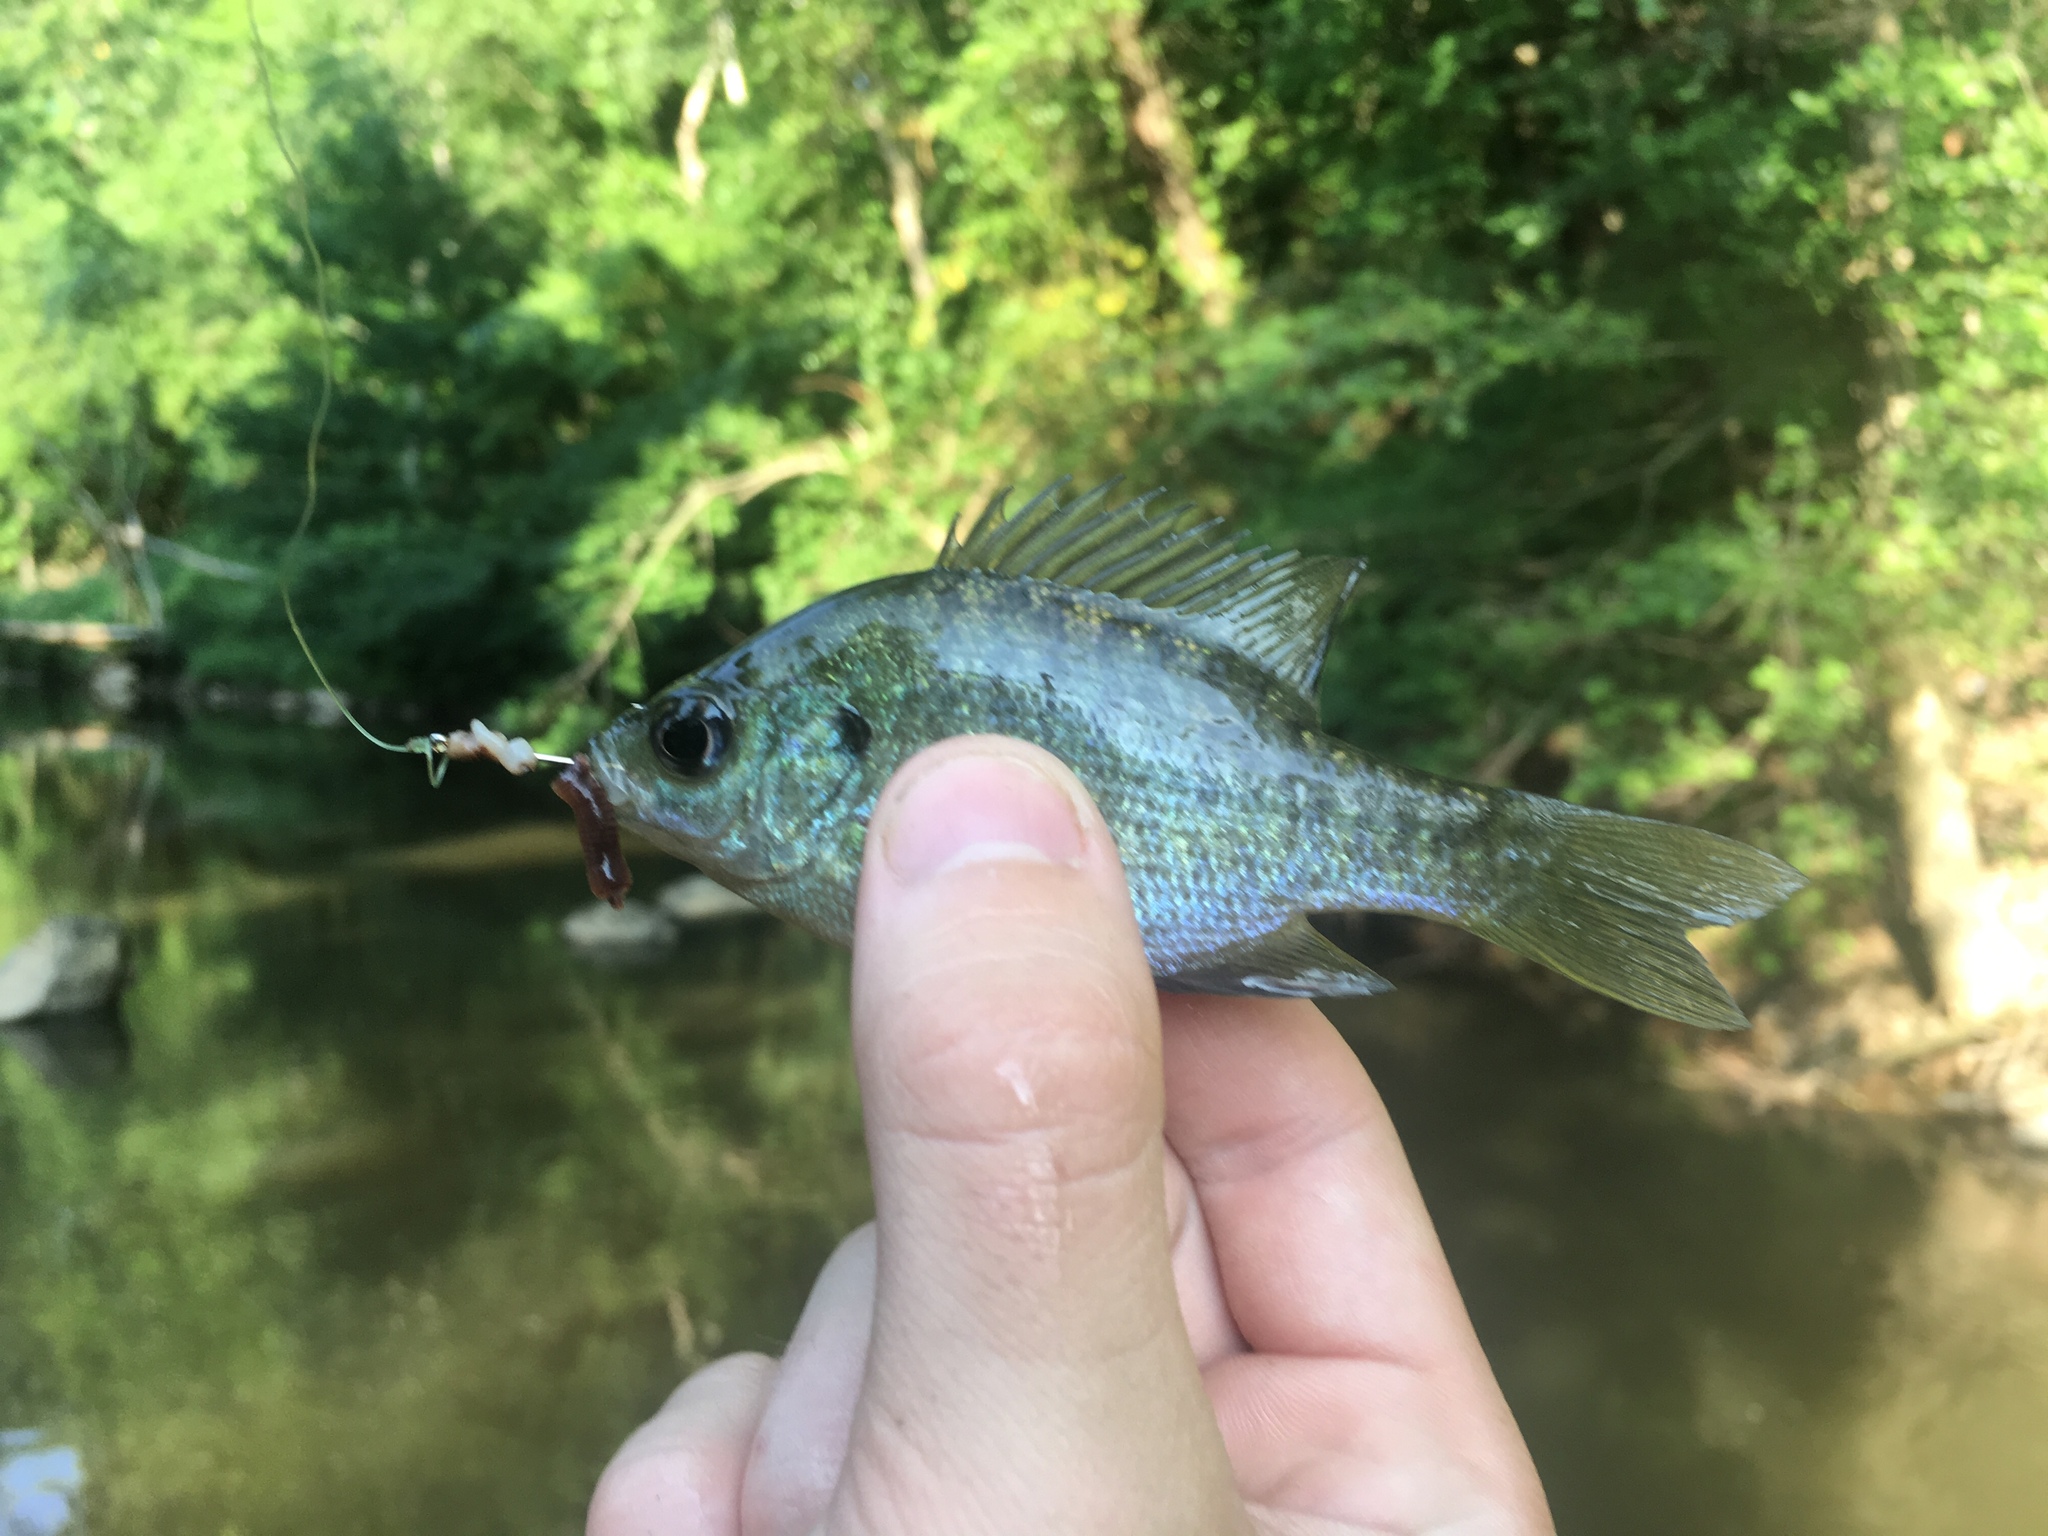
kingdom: Animalia
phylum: Chordata
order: Perciformes
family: Centrarchidae
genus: Lepomis
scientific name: Lepomis macrochirus
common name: Bluegill
